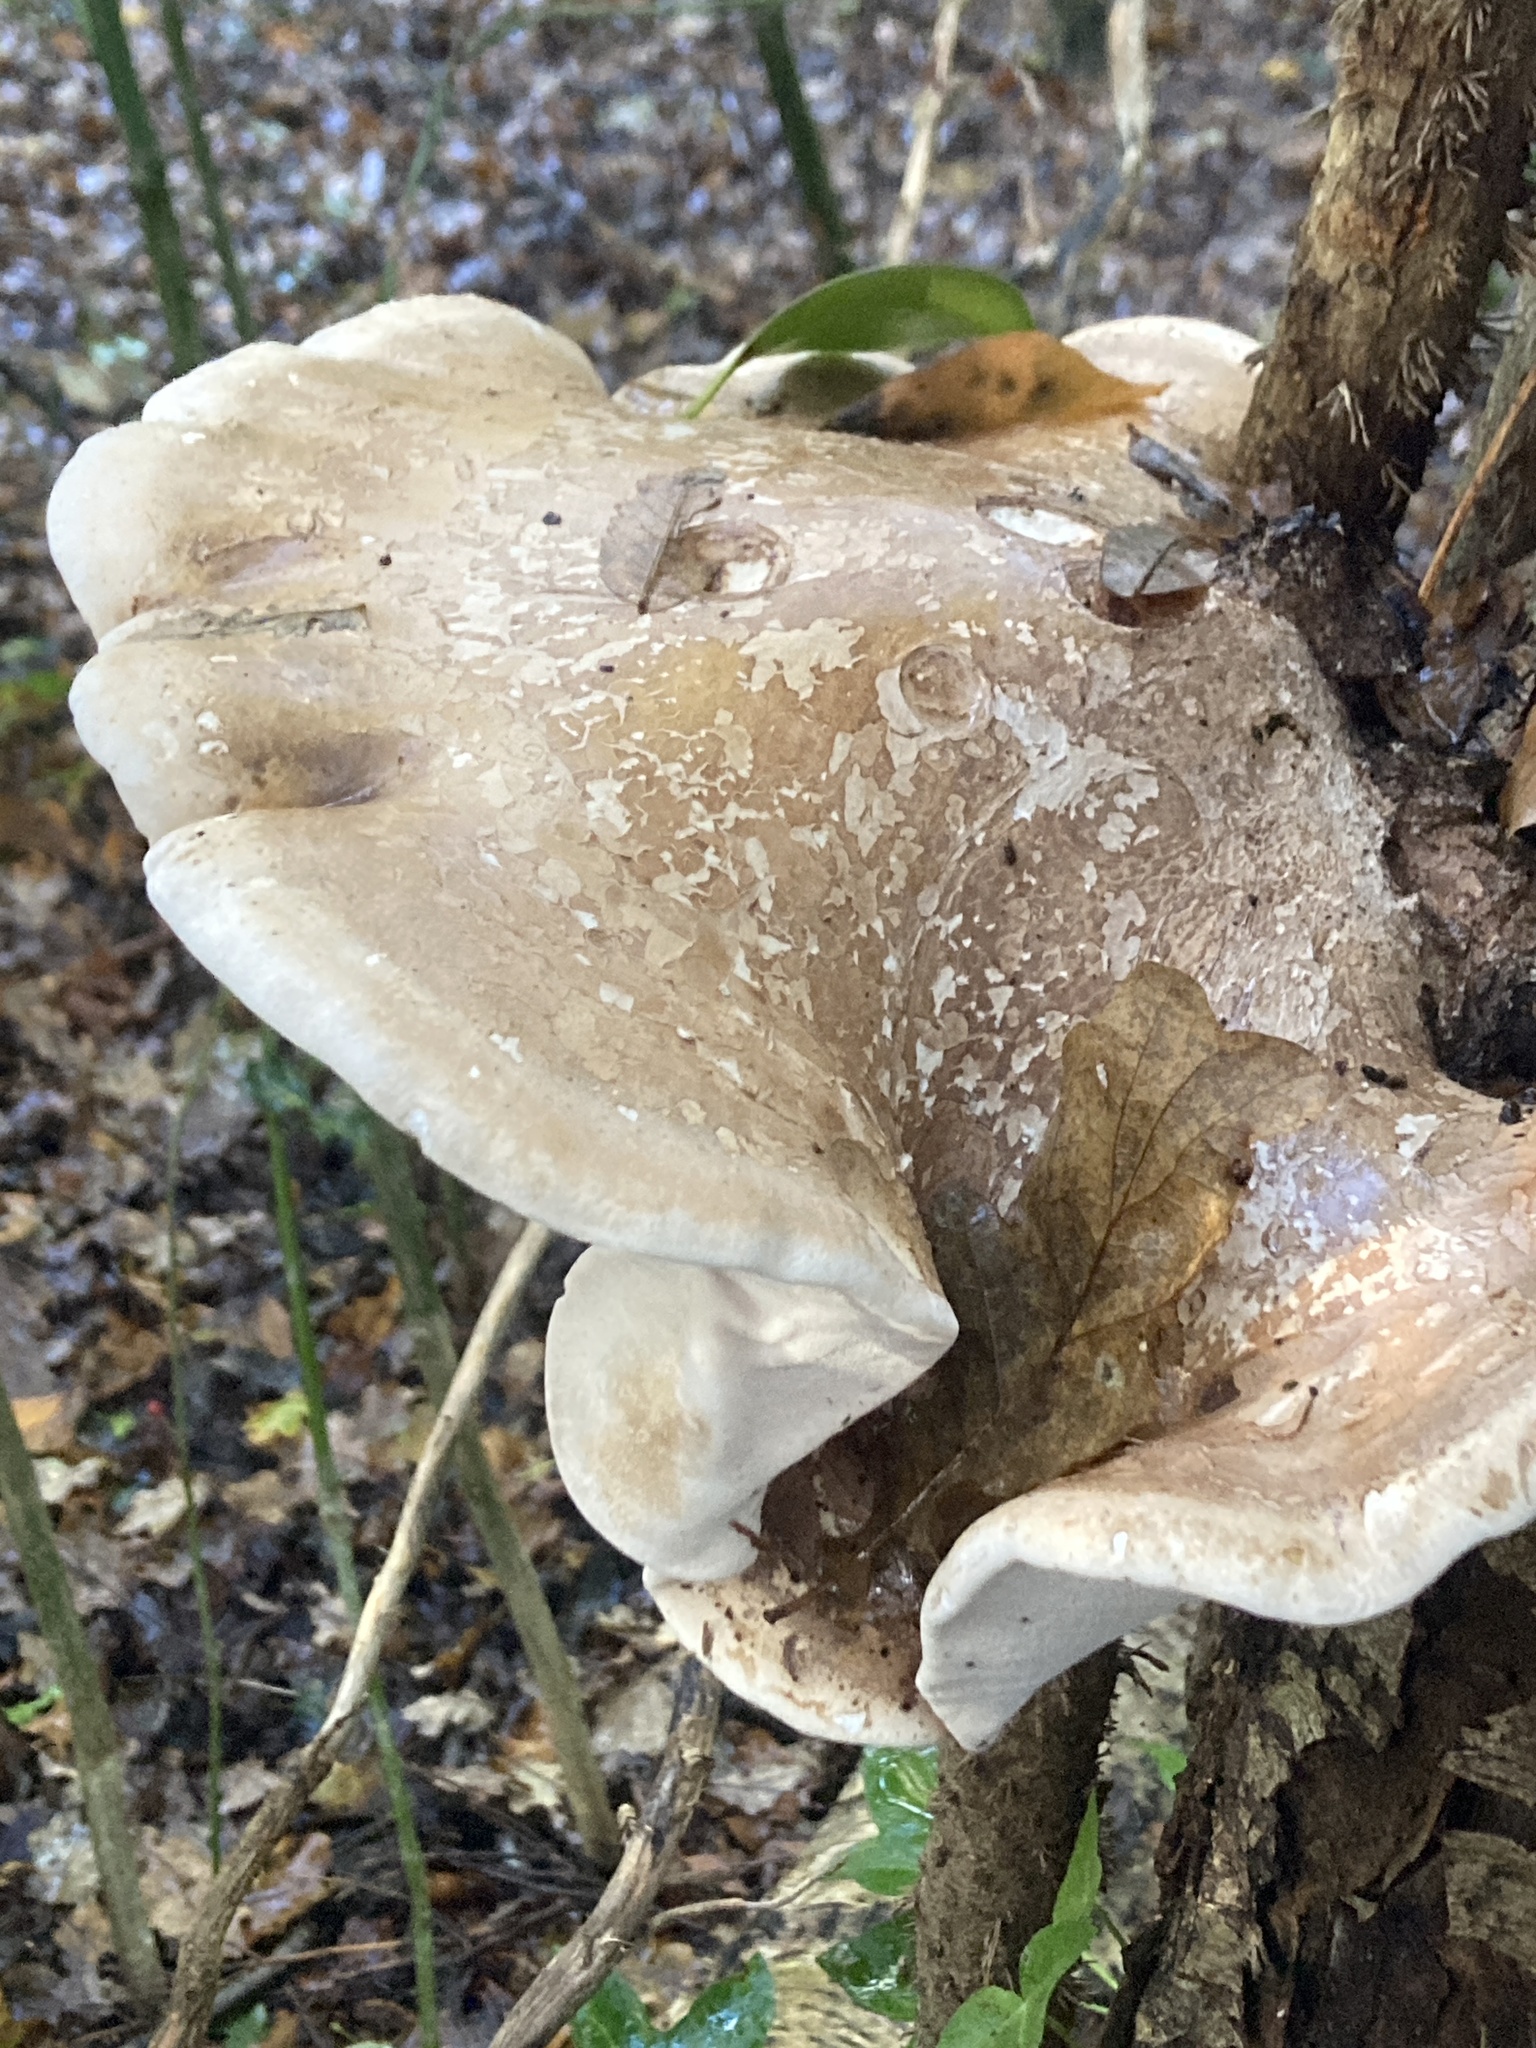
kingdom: Fungi
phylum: Basidiomycota
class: Agaricomycetes
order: Polyporales
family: Fomitopsidaceae
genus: Fomitopsis
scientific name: Fomitopsis betulina
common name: Birch polypore
